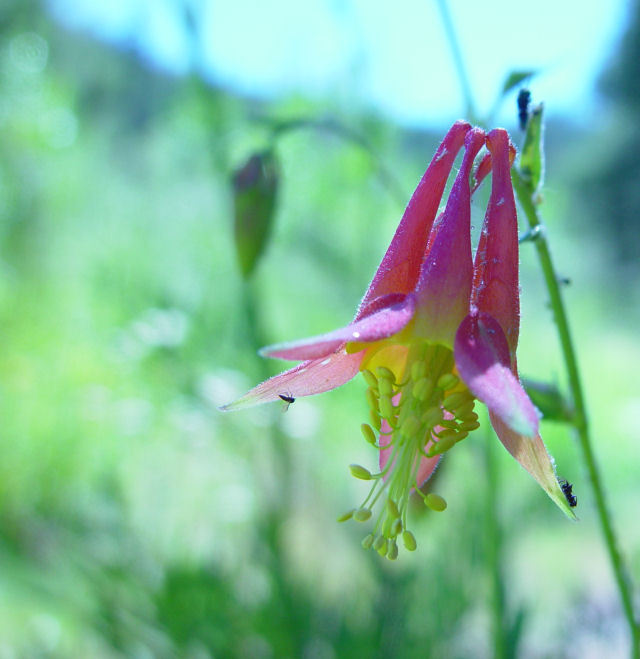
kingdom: Plantae
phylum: Tracheophyta
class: Magnoliopsida
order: Ranunculales
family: Ranunculaceae
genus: Aquilegia
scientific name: Aquilegia formosa
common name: Sitka columbine
